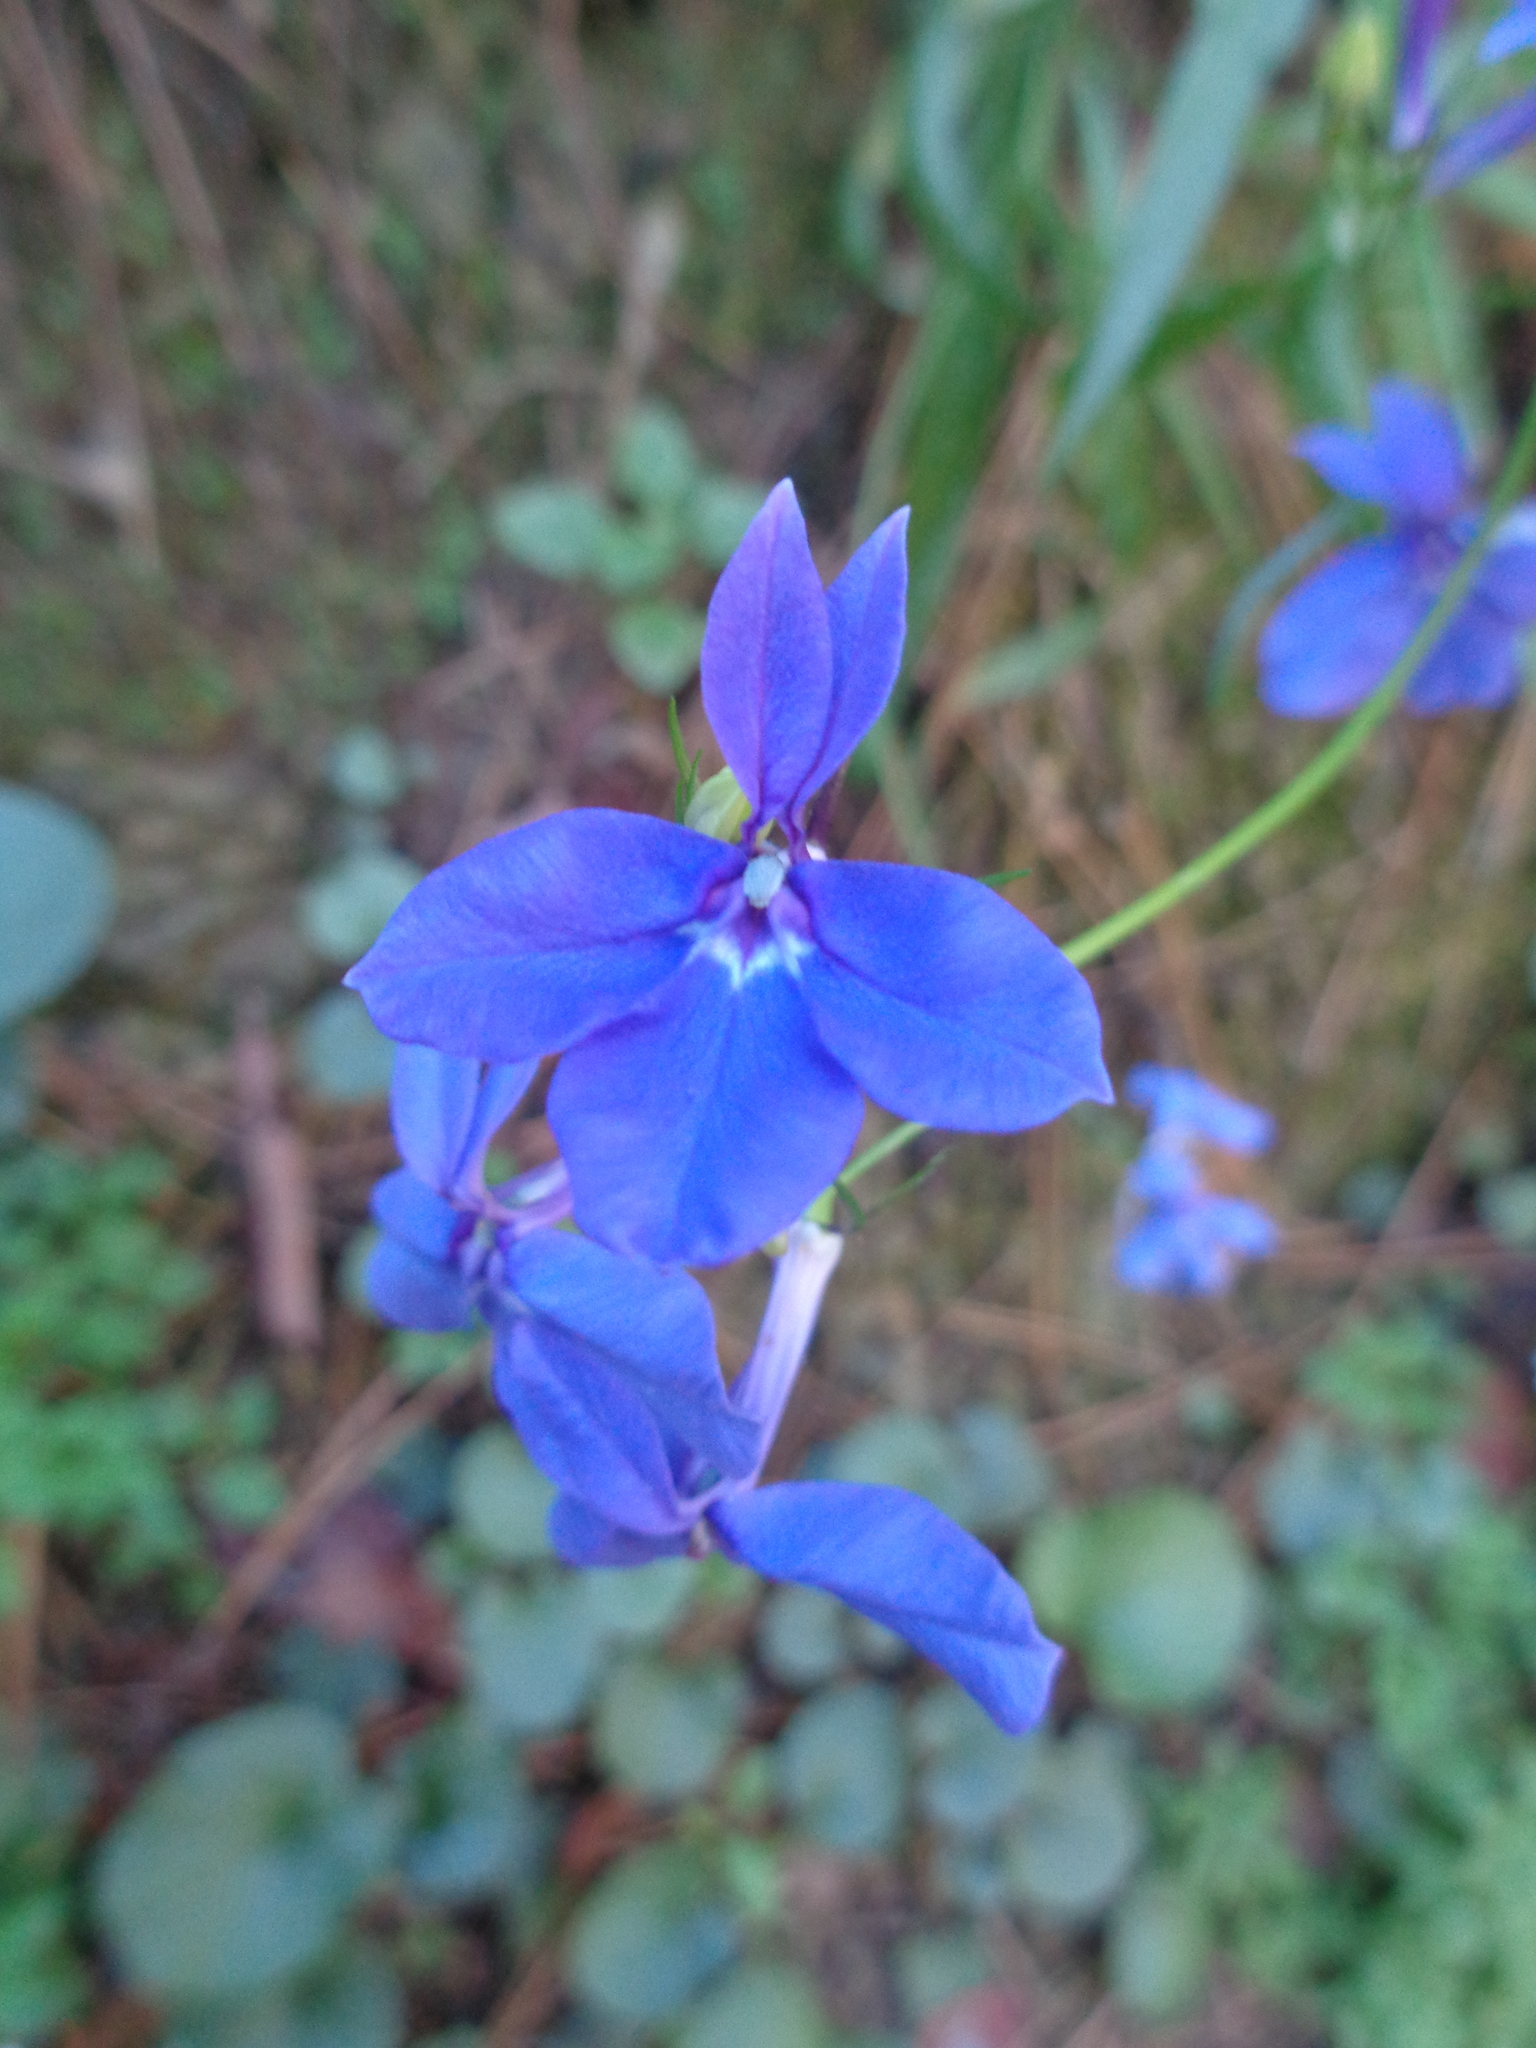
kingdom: Plantae
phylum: Tracheophyta
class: Magnoliopsida
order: Asterales
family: Campanulaceae
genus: Lobelia
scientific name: Lobelia sublibera
